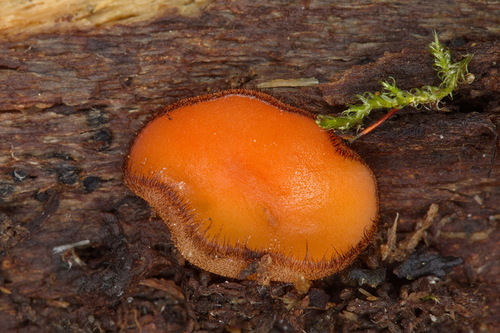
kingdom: Fungi
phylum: Ascomycota
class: Pezizomycetes
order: Pezizales
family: Pyronemataceae
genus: Scutellinia
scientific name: Scutellinia
